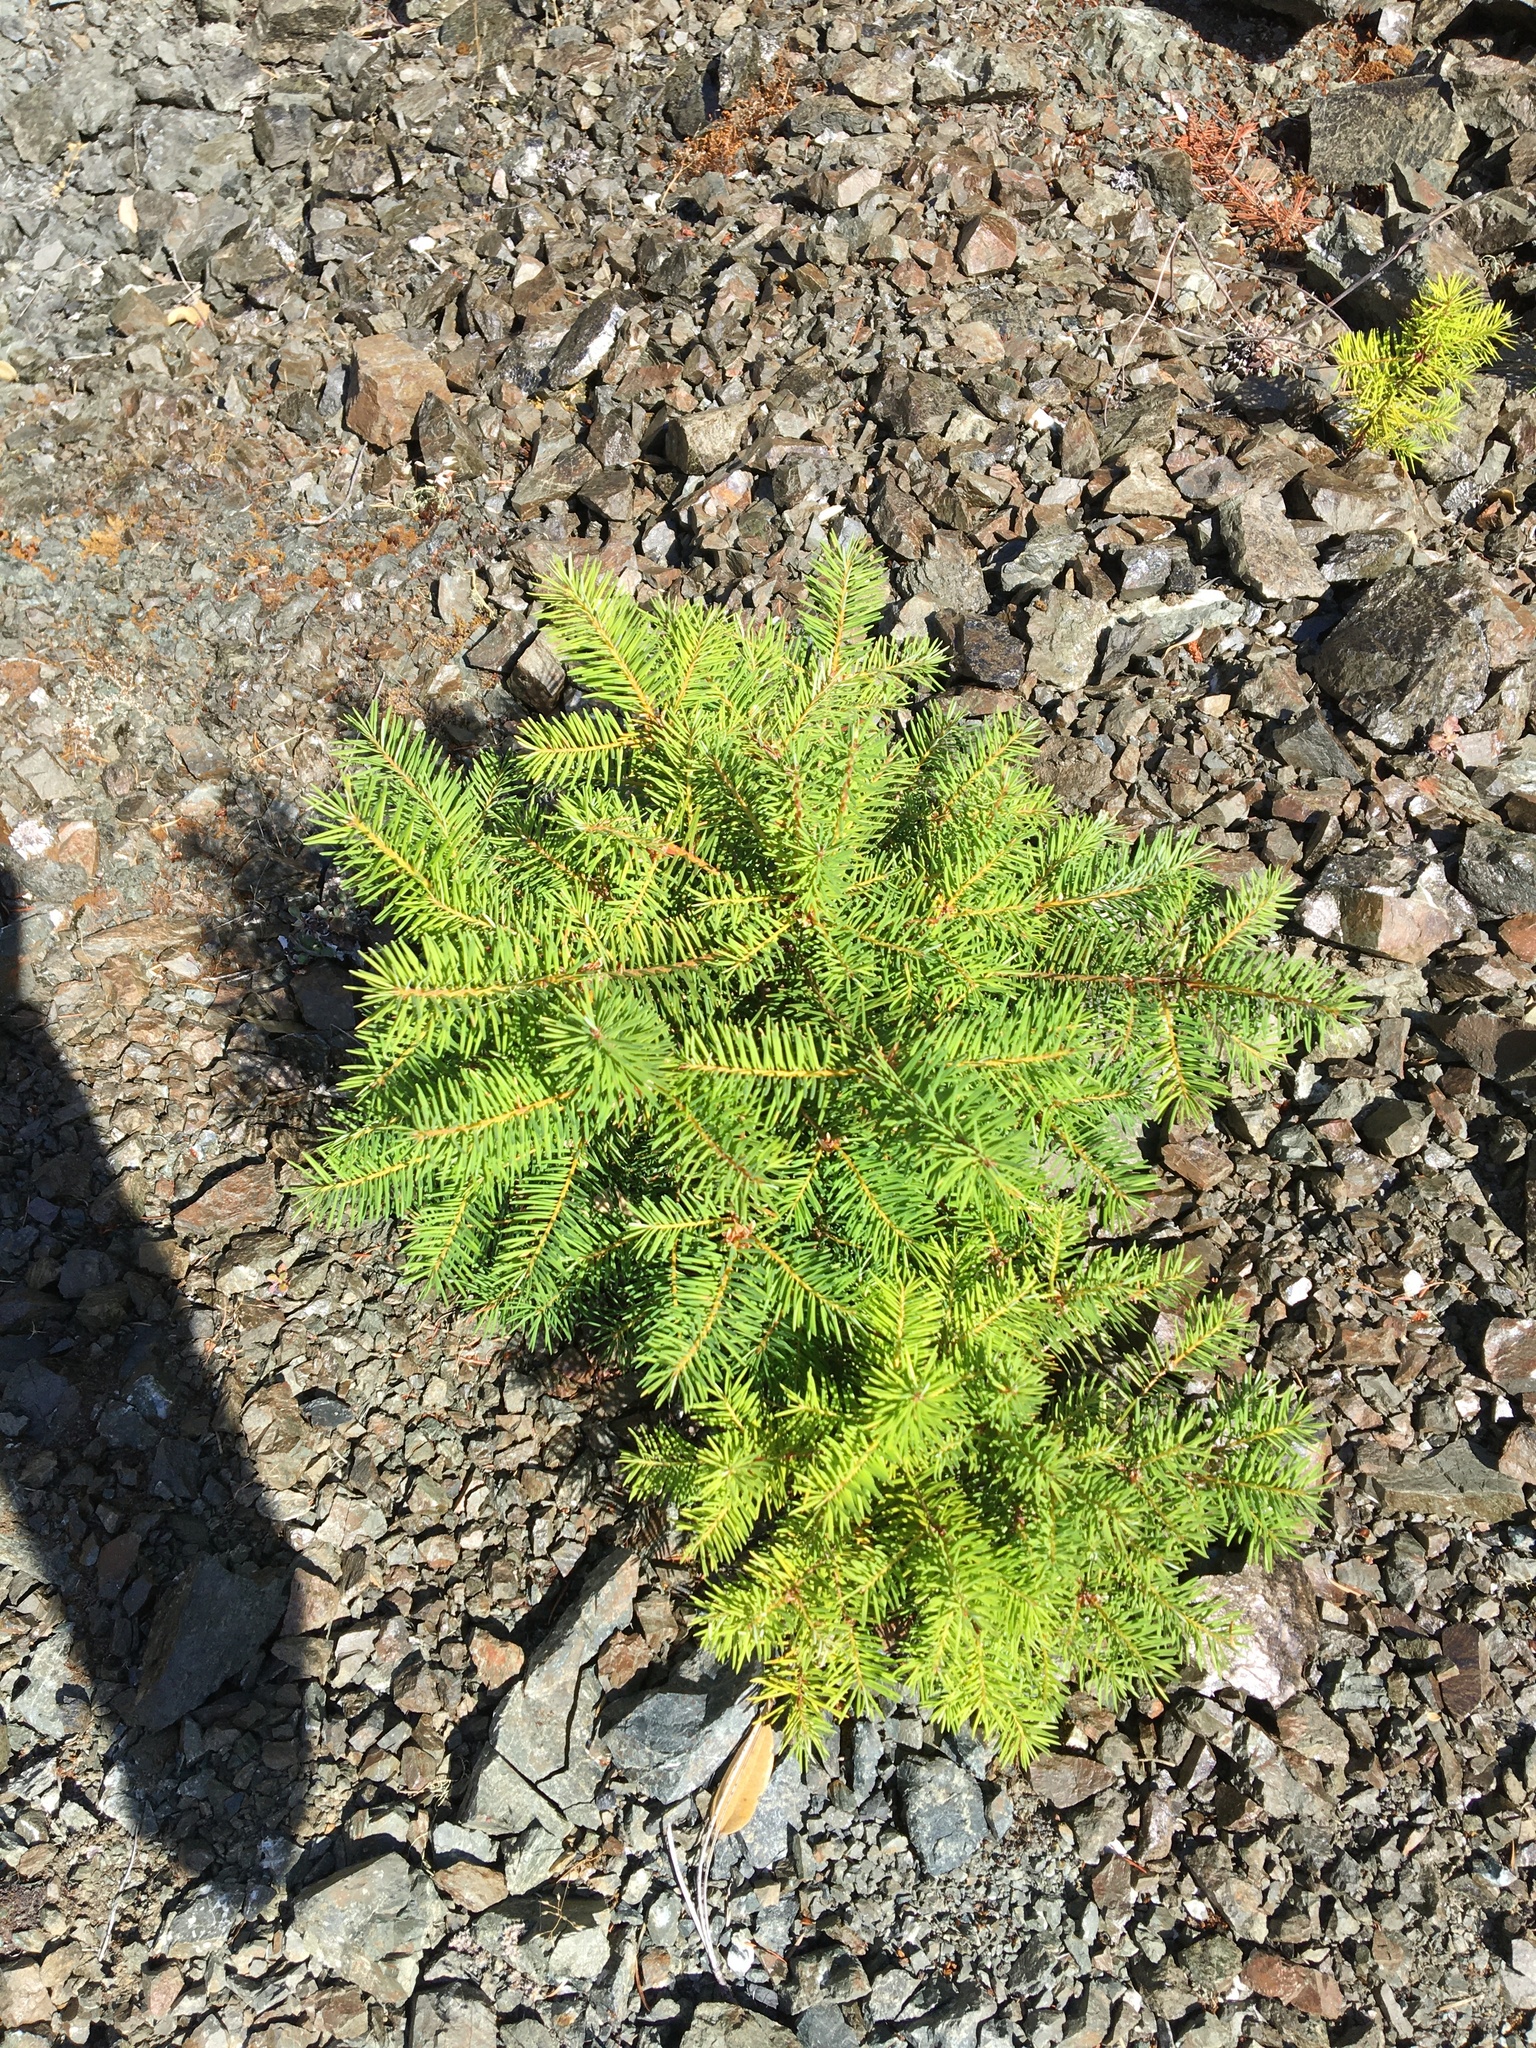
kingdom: Plantae
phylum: Tracheophyta
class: Pinopsida
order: Pinales
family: Pinaceae
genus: Pseudotsuga
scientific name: Pseudotsuga menziesii
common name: Douglas fir
